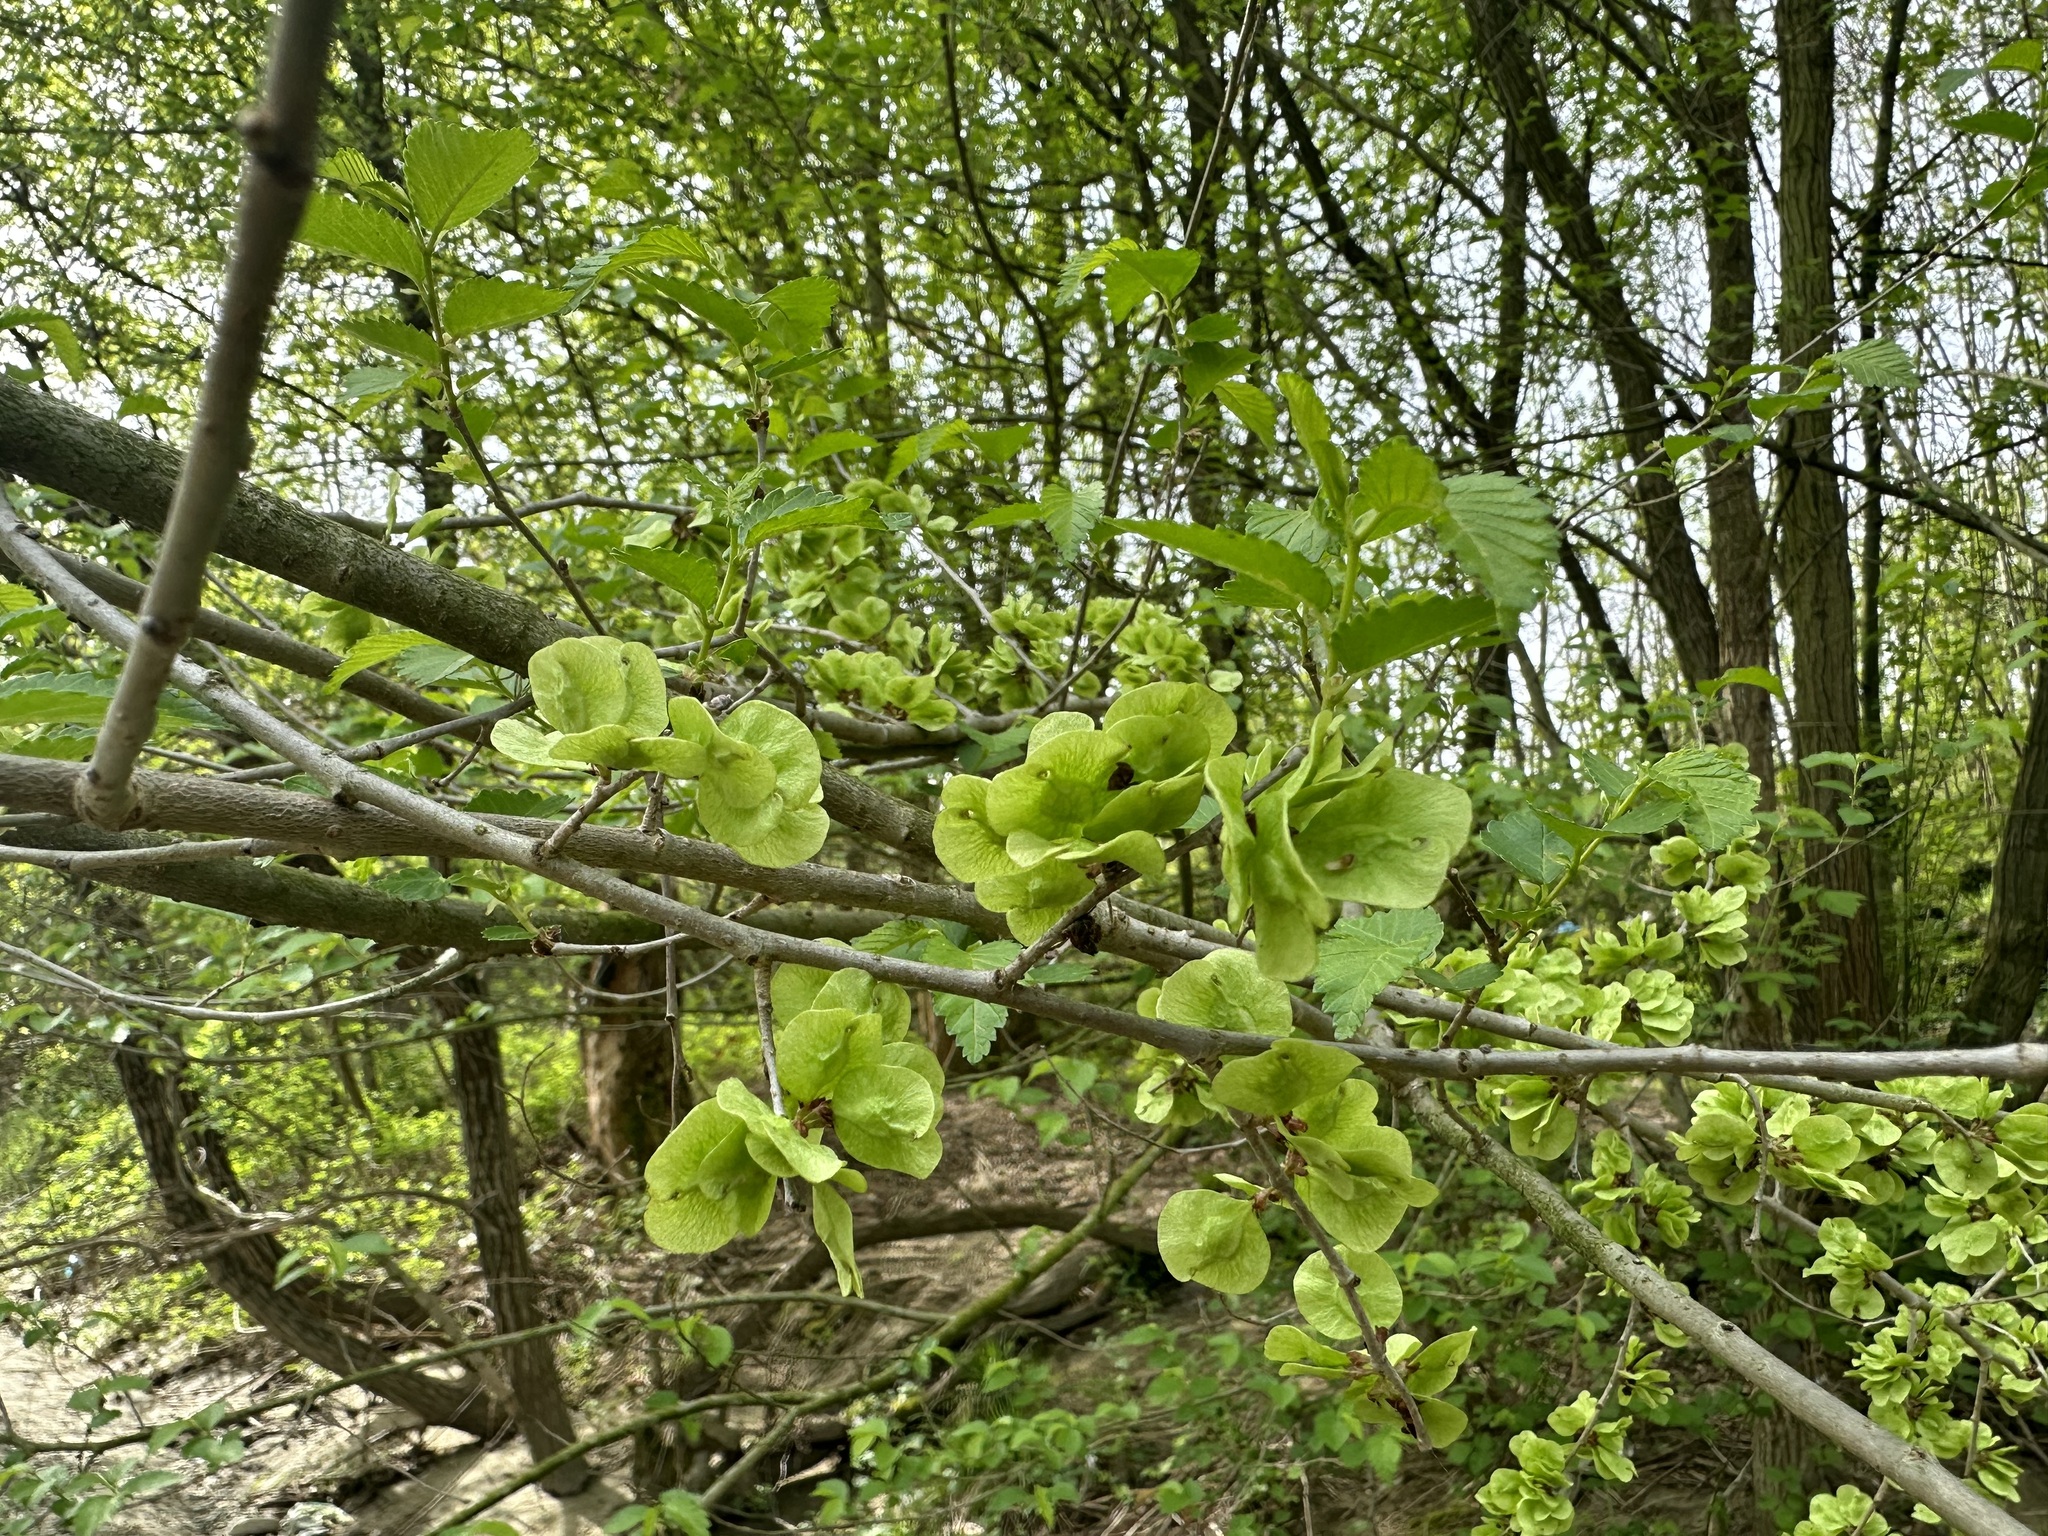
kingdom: Plantae
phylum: Tracheophyta
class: Magnoliopsida
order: Rosales
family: Ulmaceae
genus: Ulmus
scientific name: Ulmus minor
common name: Small-leaved elm
